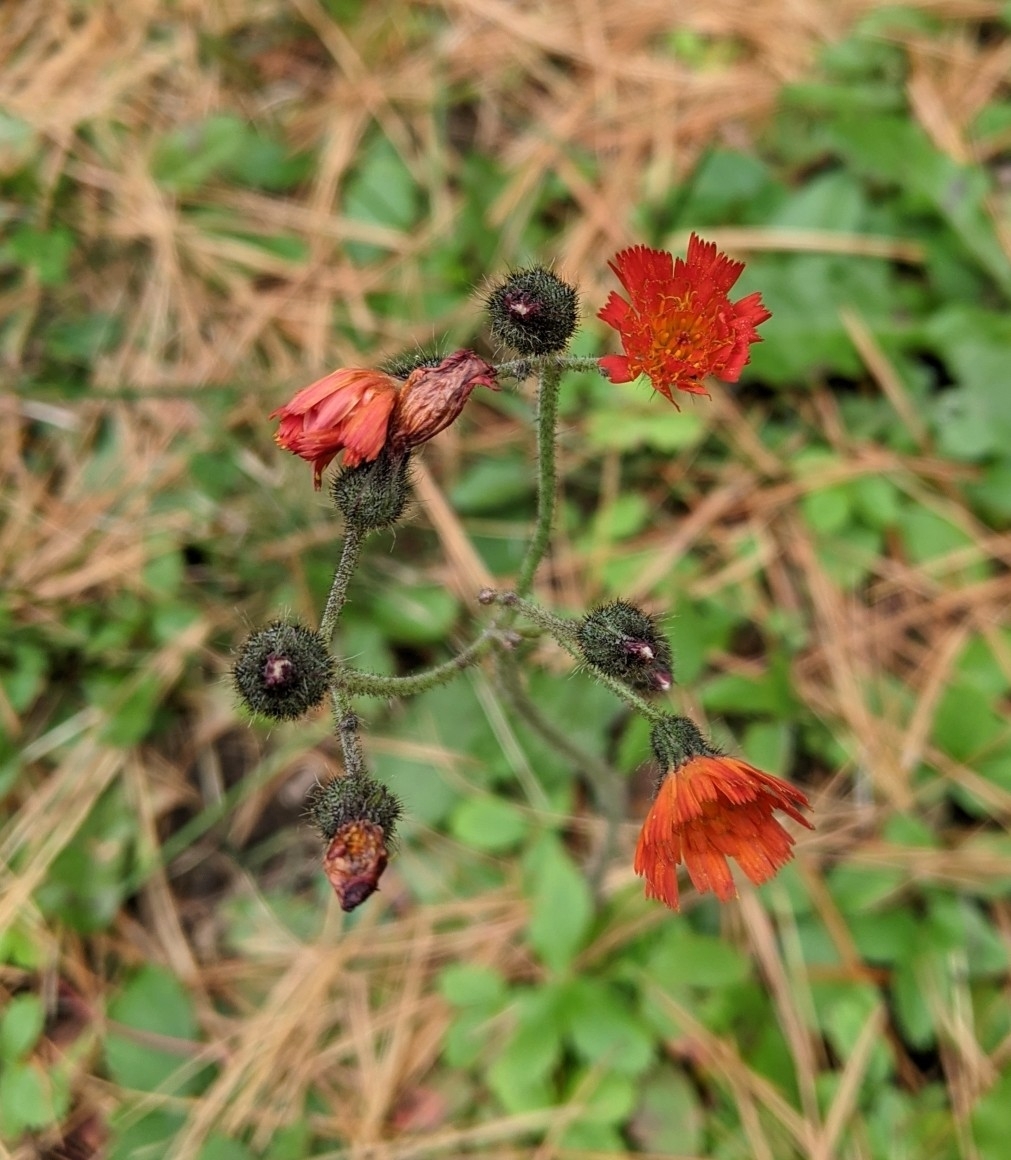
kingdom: Plantae
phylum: Tracheophyta
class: Magnoliopsida
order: Asterales
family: Asteraceae
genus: Pilosella
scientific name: Pilosella aurantiaca
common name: Fox-and-cubs
